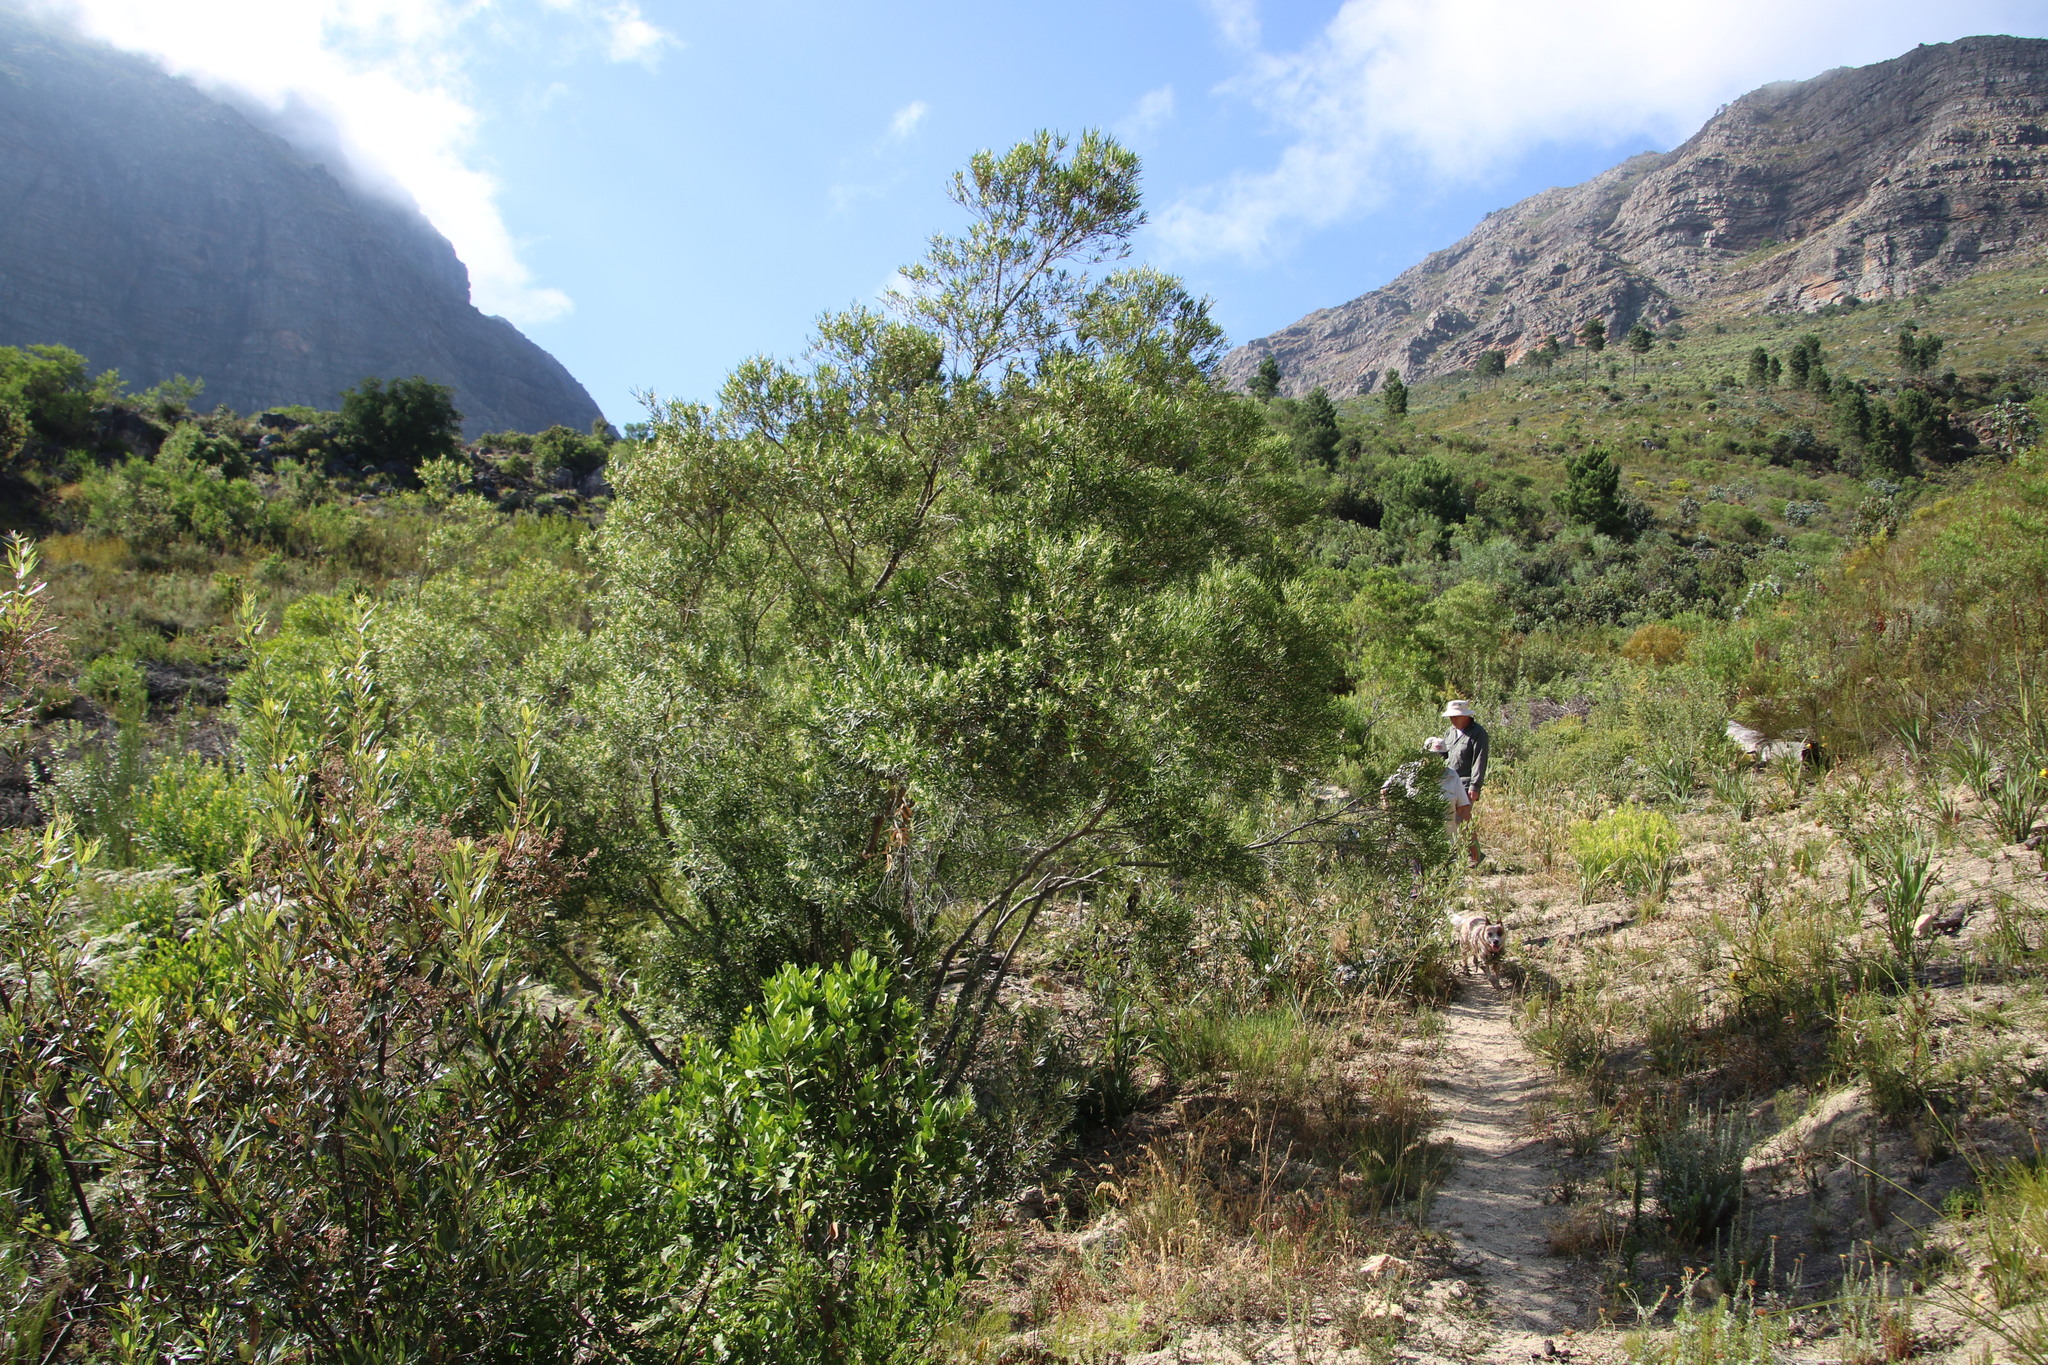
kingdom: Plantae
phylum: Tracheophyta
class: Magnoliopsida
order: Myrtales
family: Myrtaceae
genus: Callistemon
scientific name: Callistemon lanceolatus
